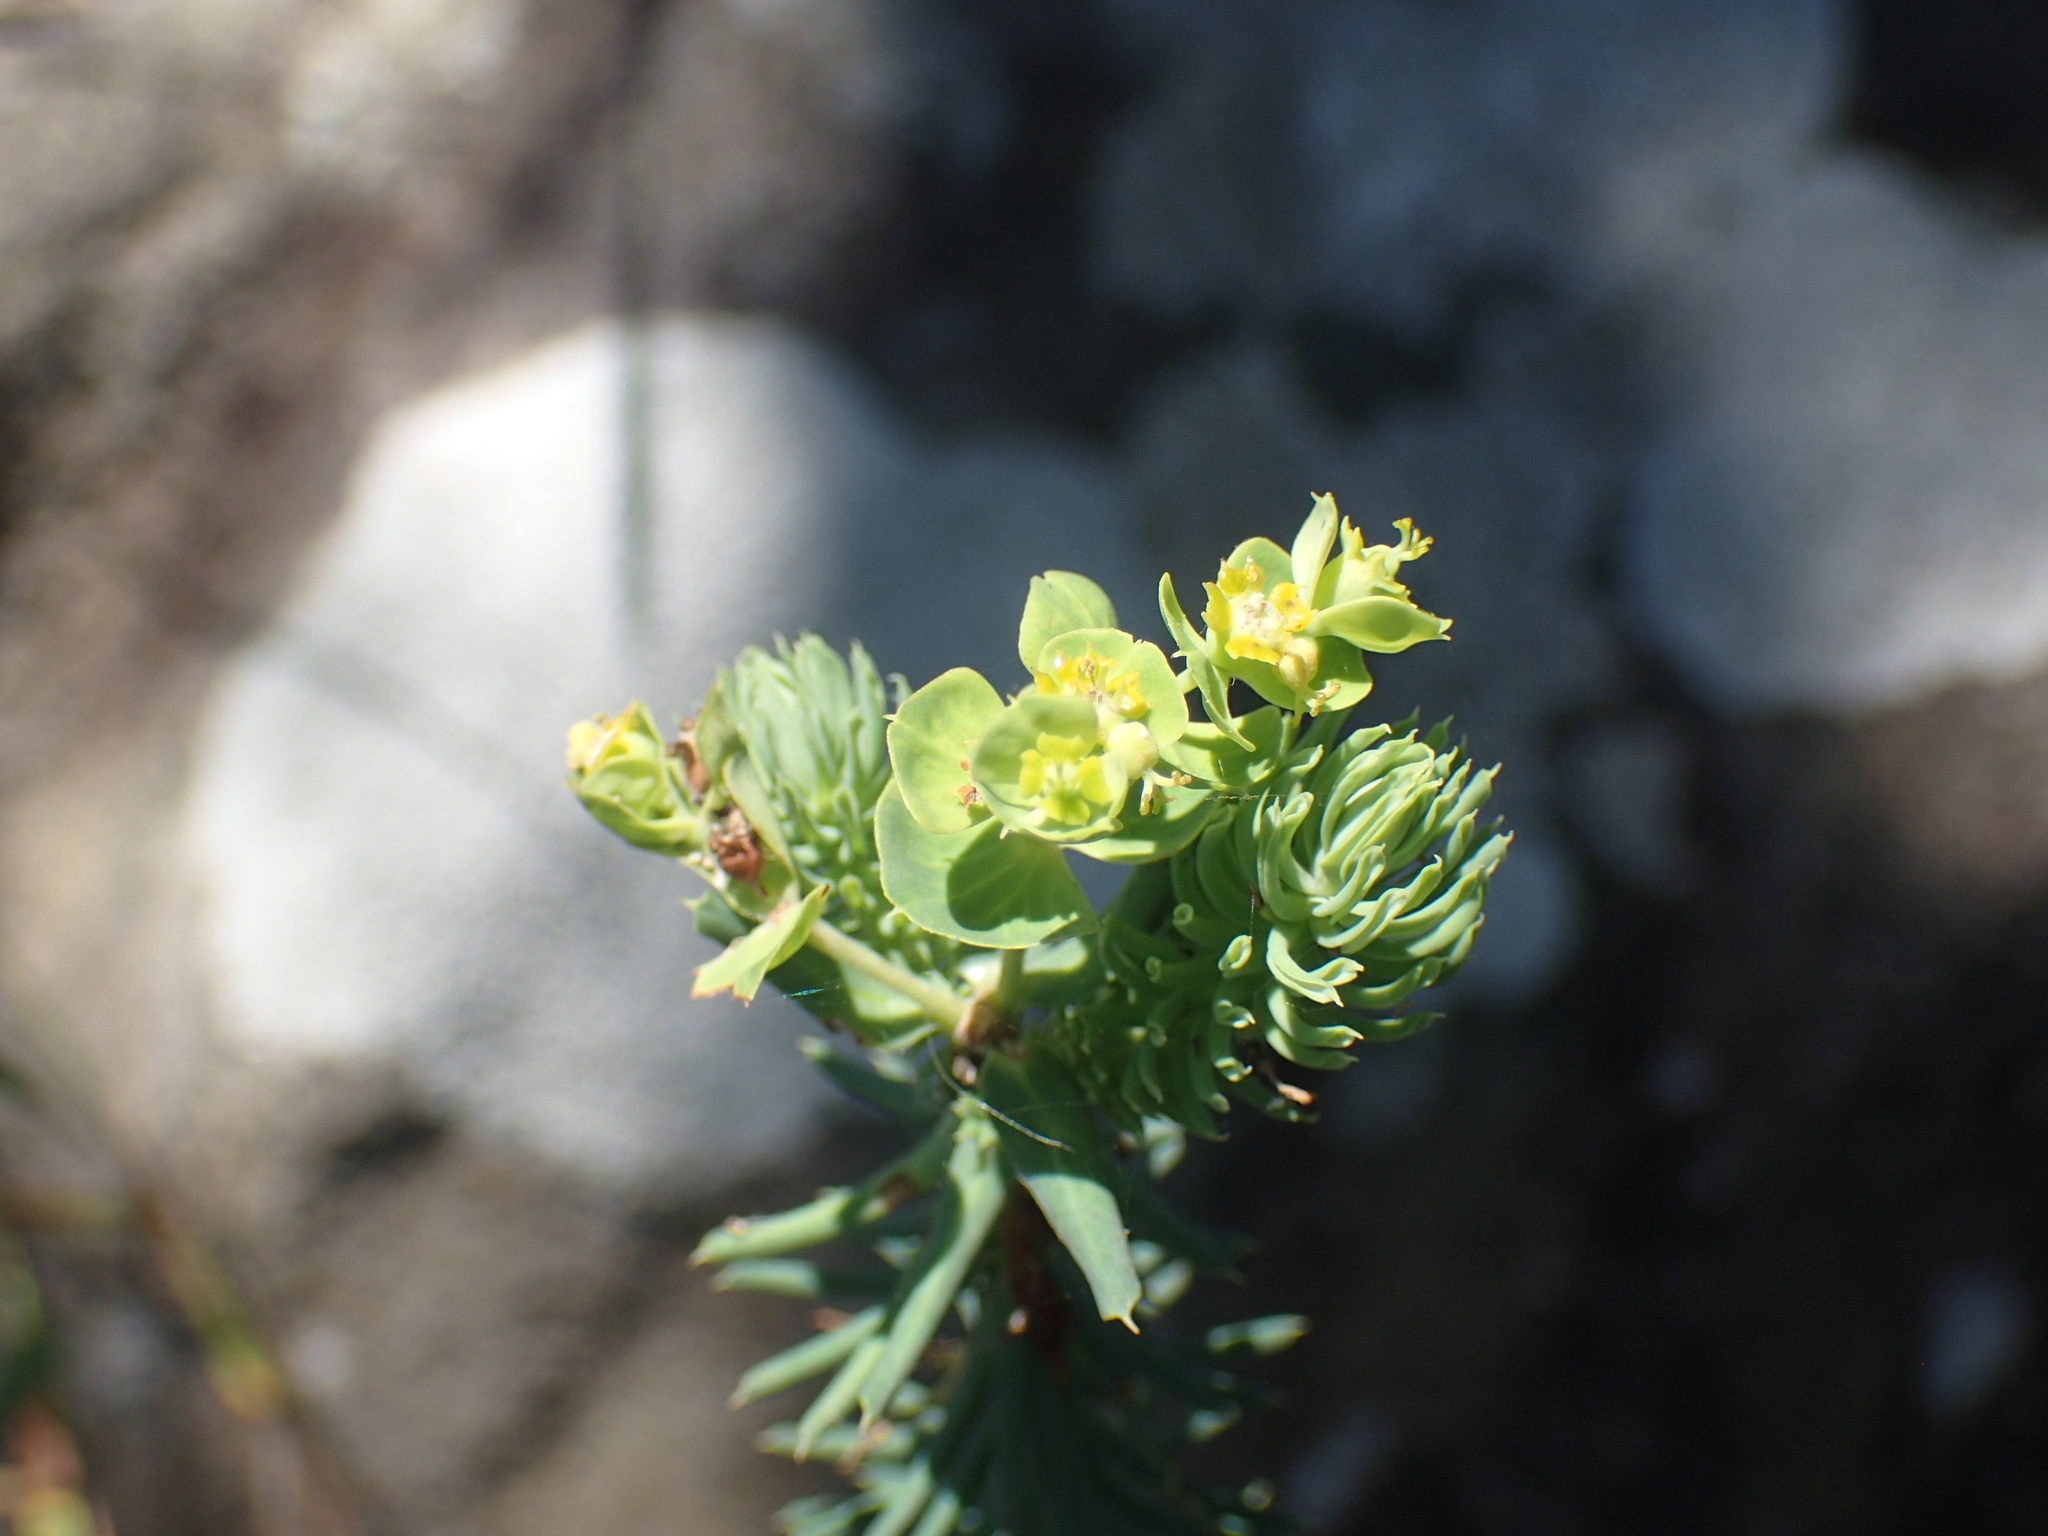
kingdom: Plantae
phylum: Tracheophyta
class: Magnoliopsida
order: Malpighiales
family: Euphorbiaceae
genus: Euphorbia
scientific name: Euphorbia natalensis
